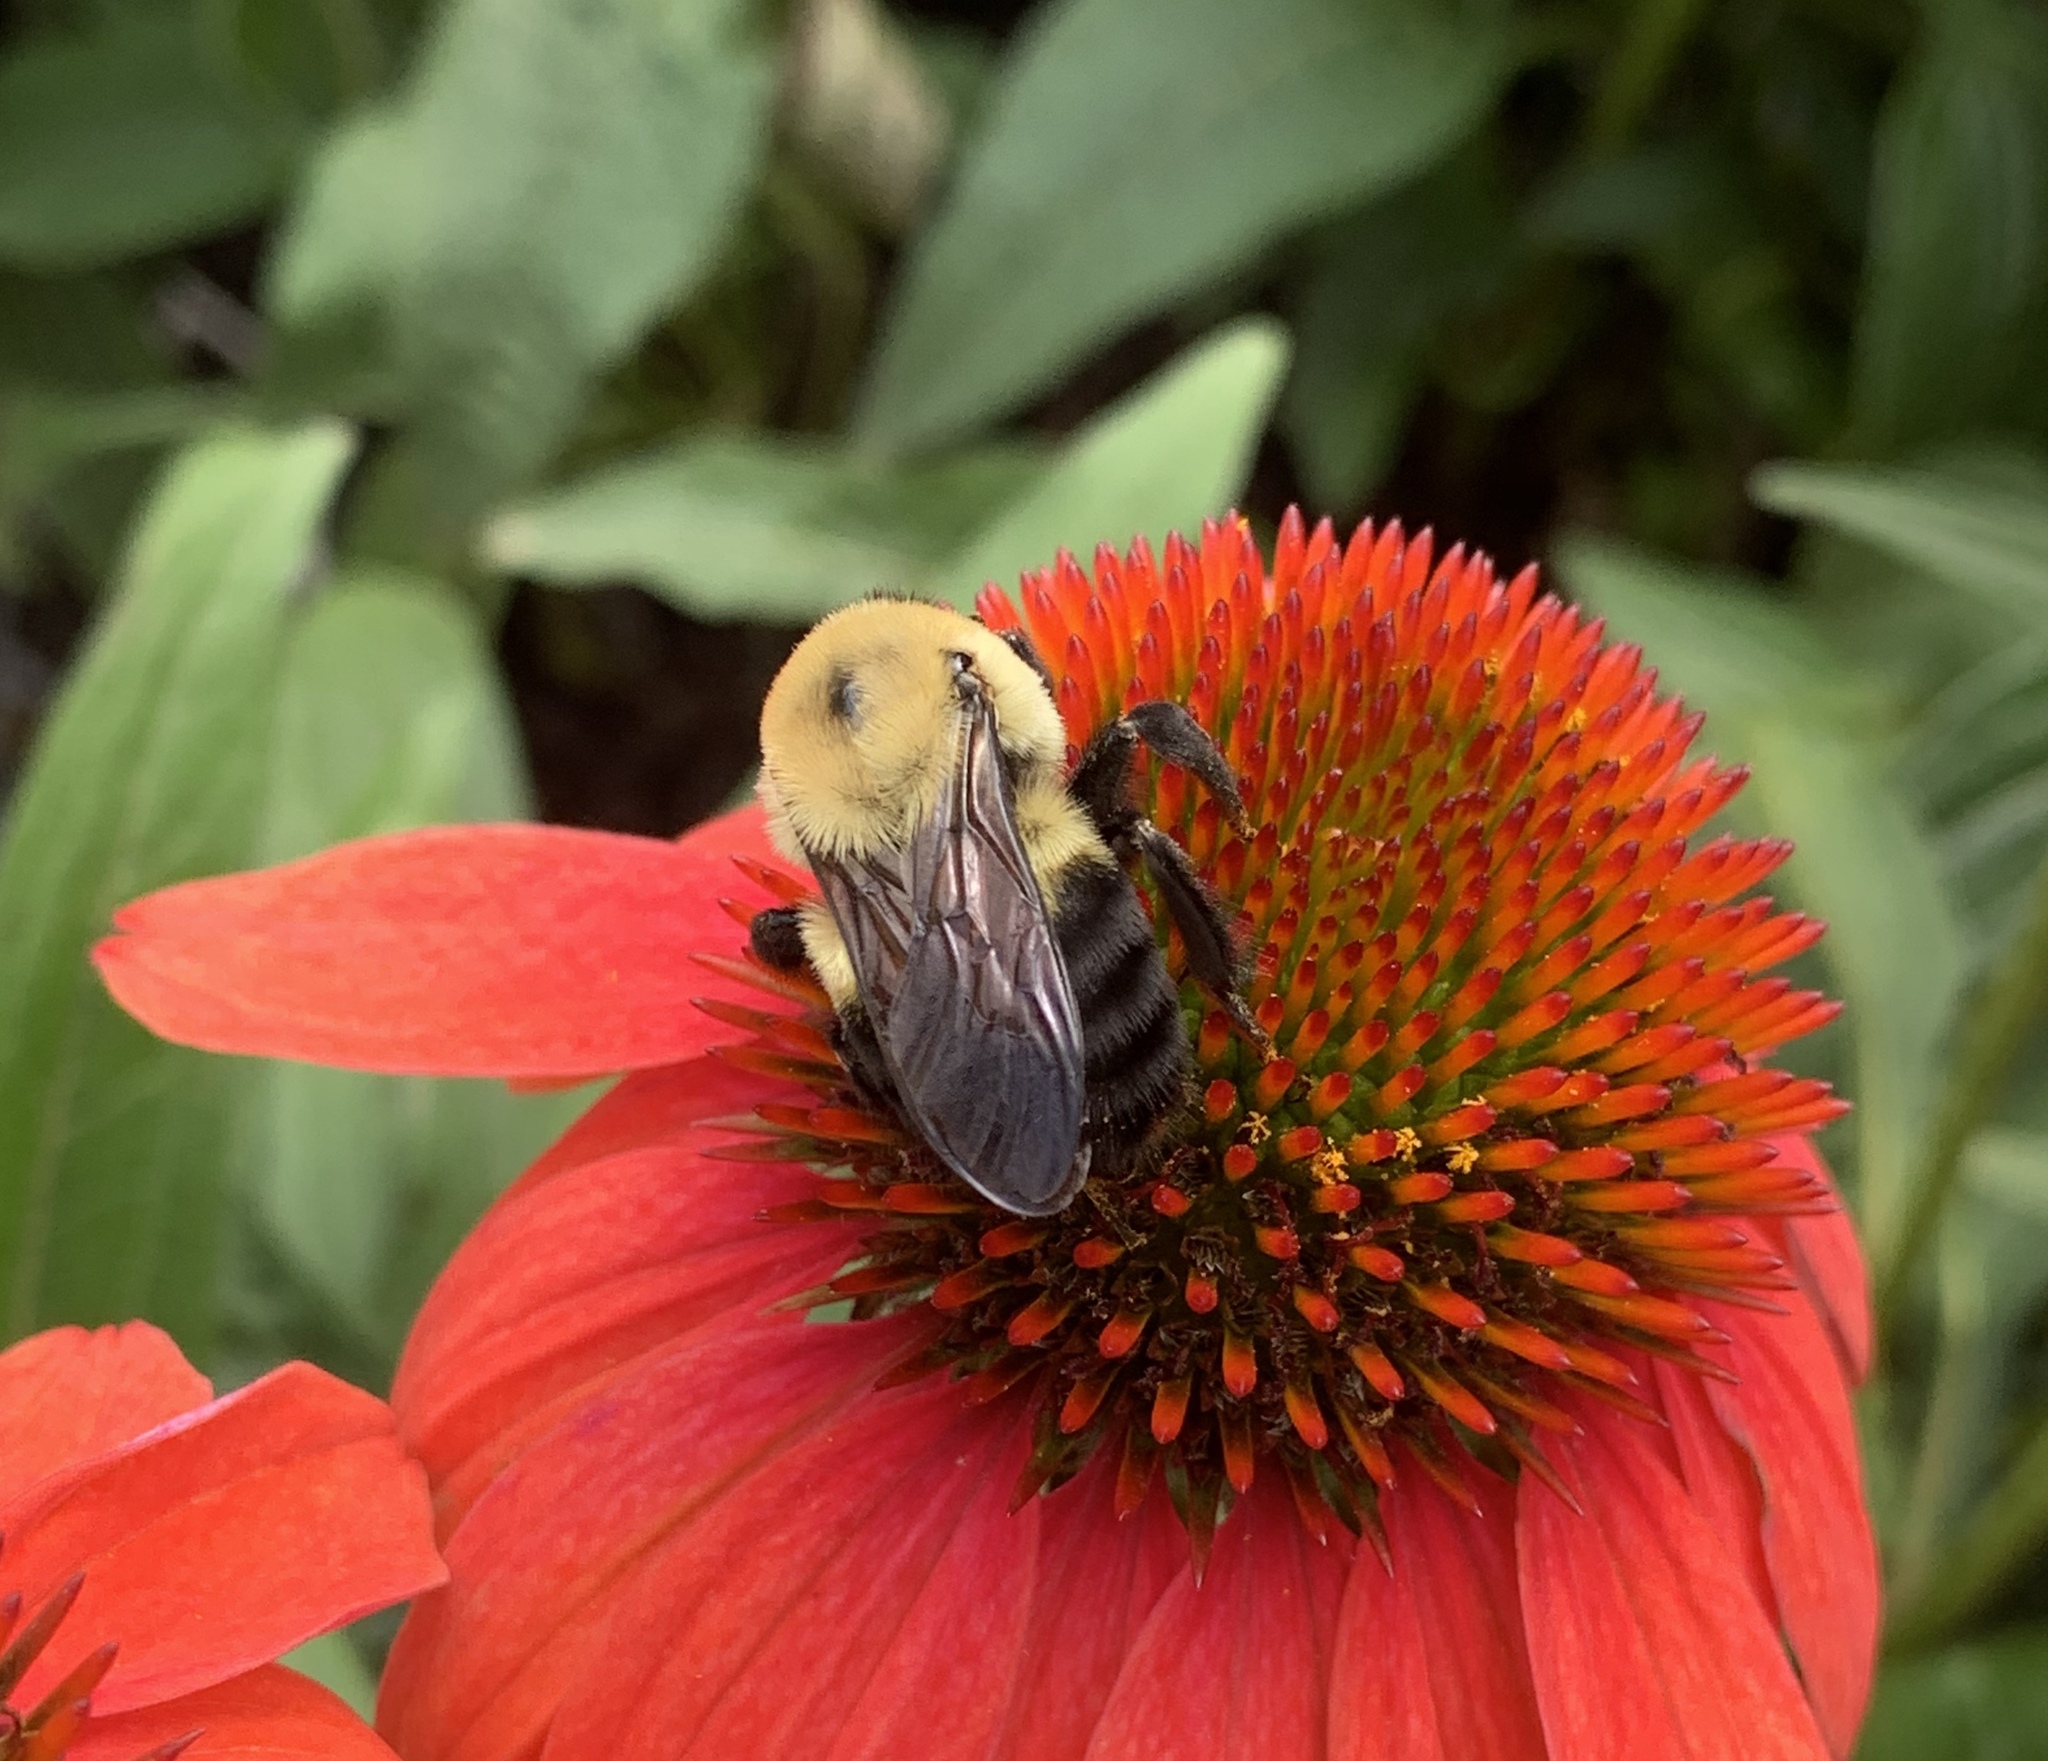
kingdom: Animalia
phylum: Arthropoda
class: Insecta
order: Hymenoptera
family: Apidae
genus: Bombus
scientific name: Bombus griseocollis
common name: Brown-belted bumble bee
